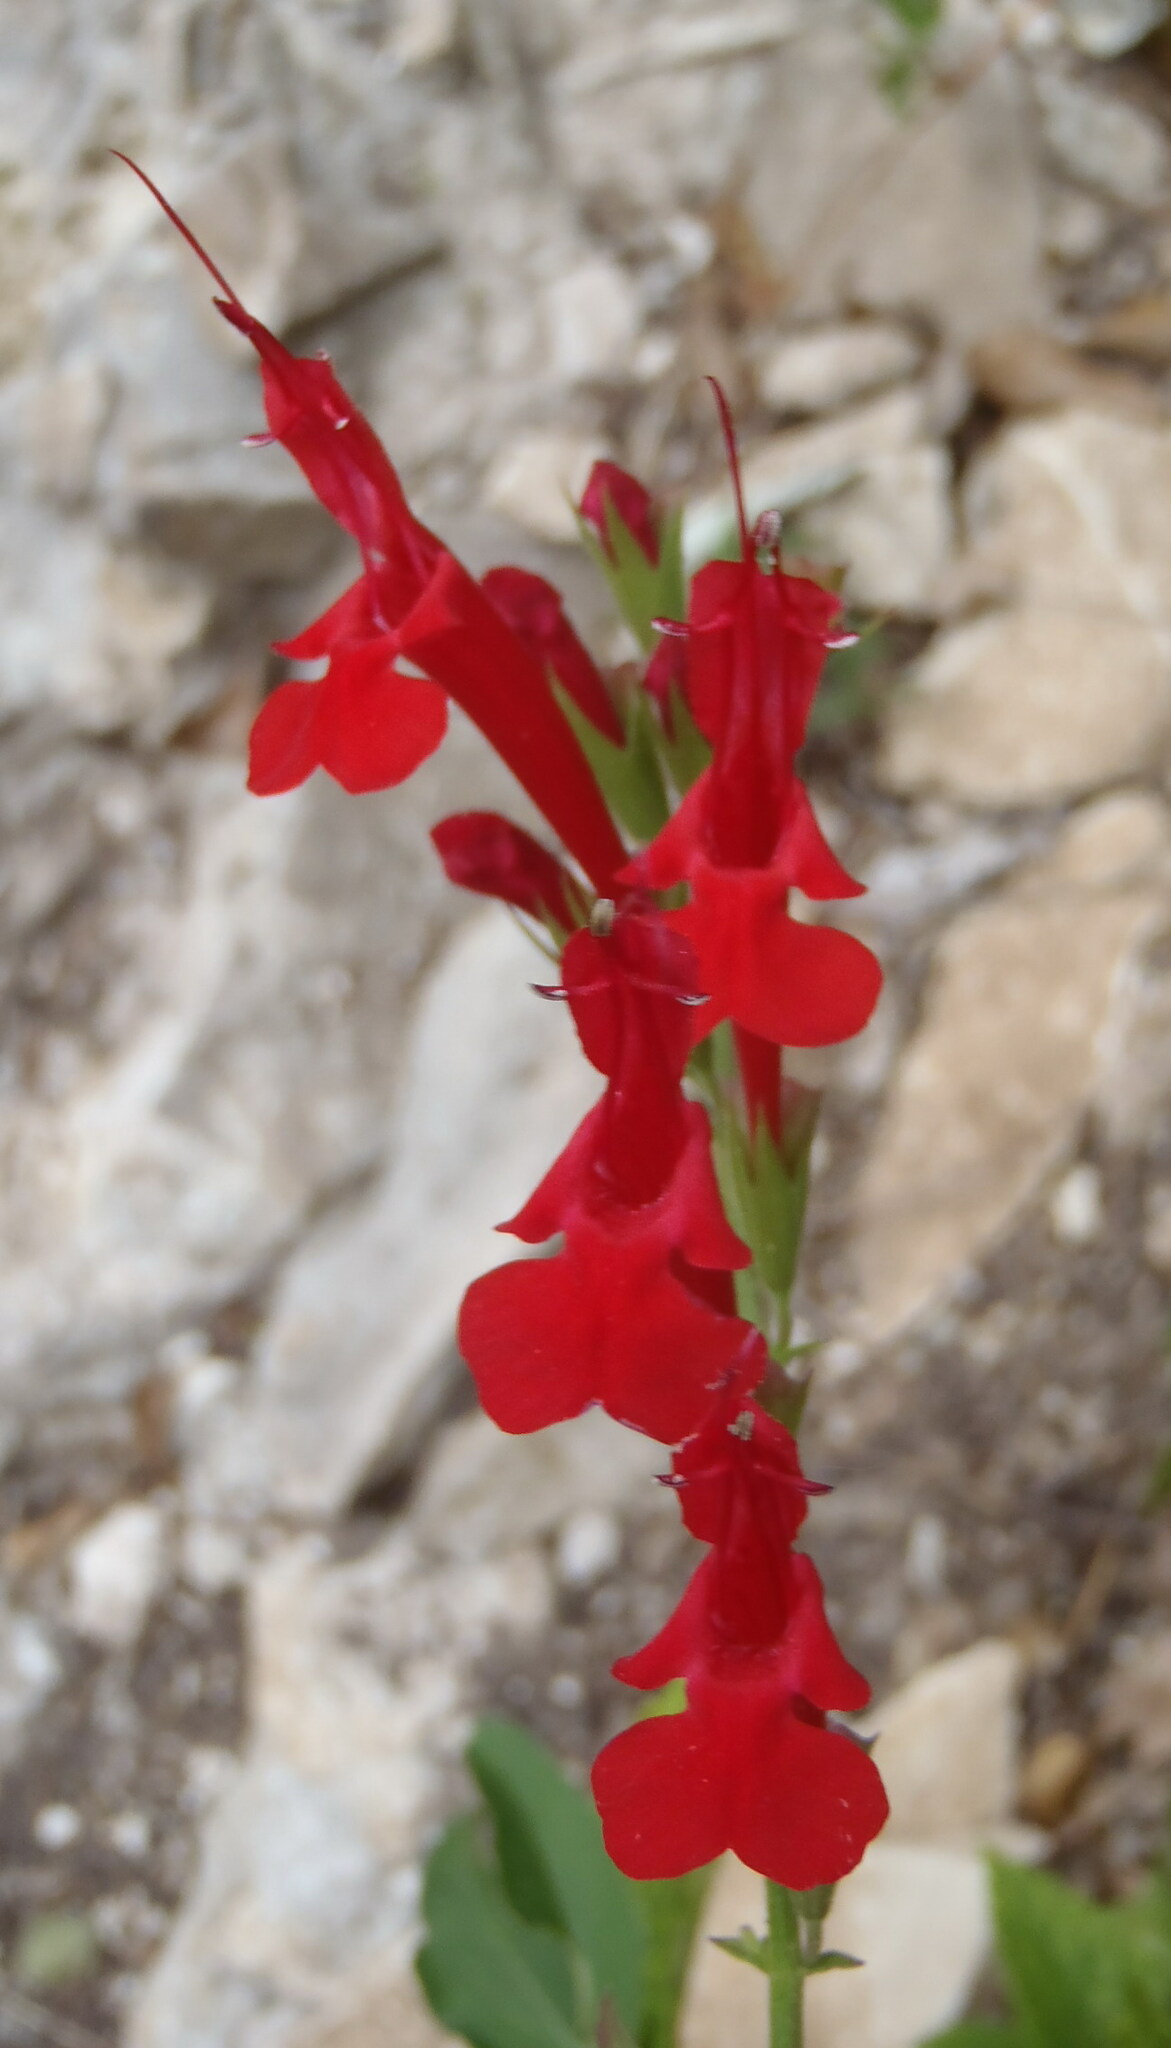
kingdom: Plantae
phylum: Tracheophyta
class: Magnoliopsida
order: Lamiales
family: Lamiaceae
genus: Salvia
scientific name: Salvia coccinea
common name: Blood sage
